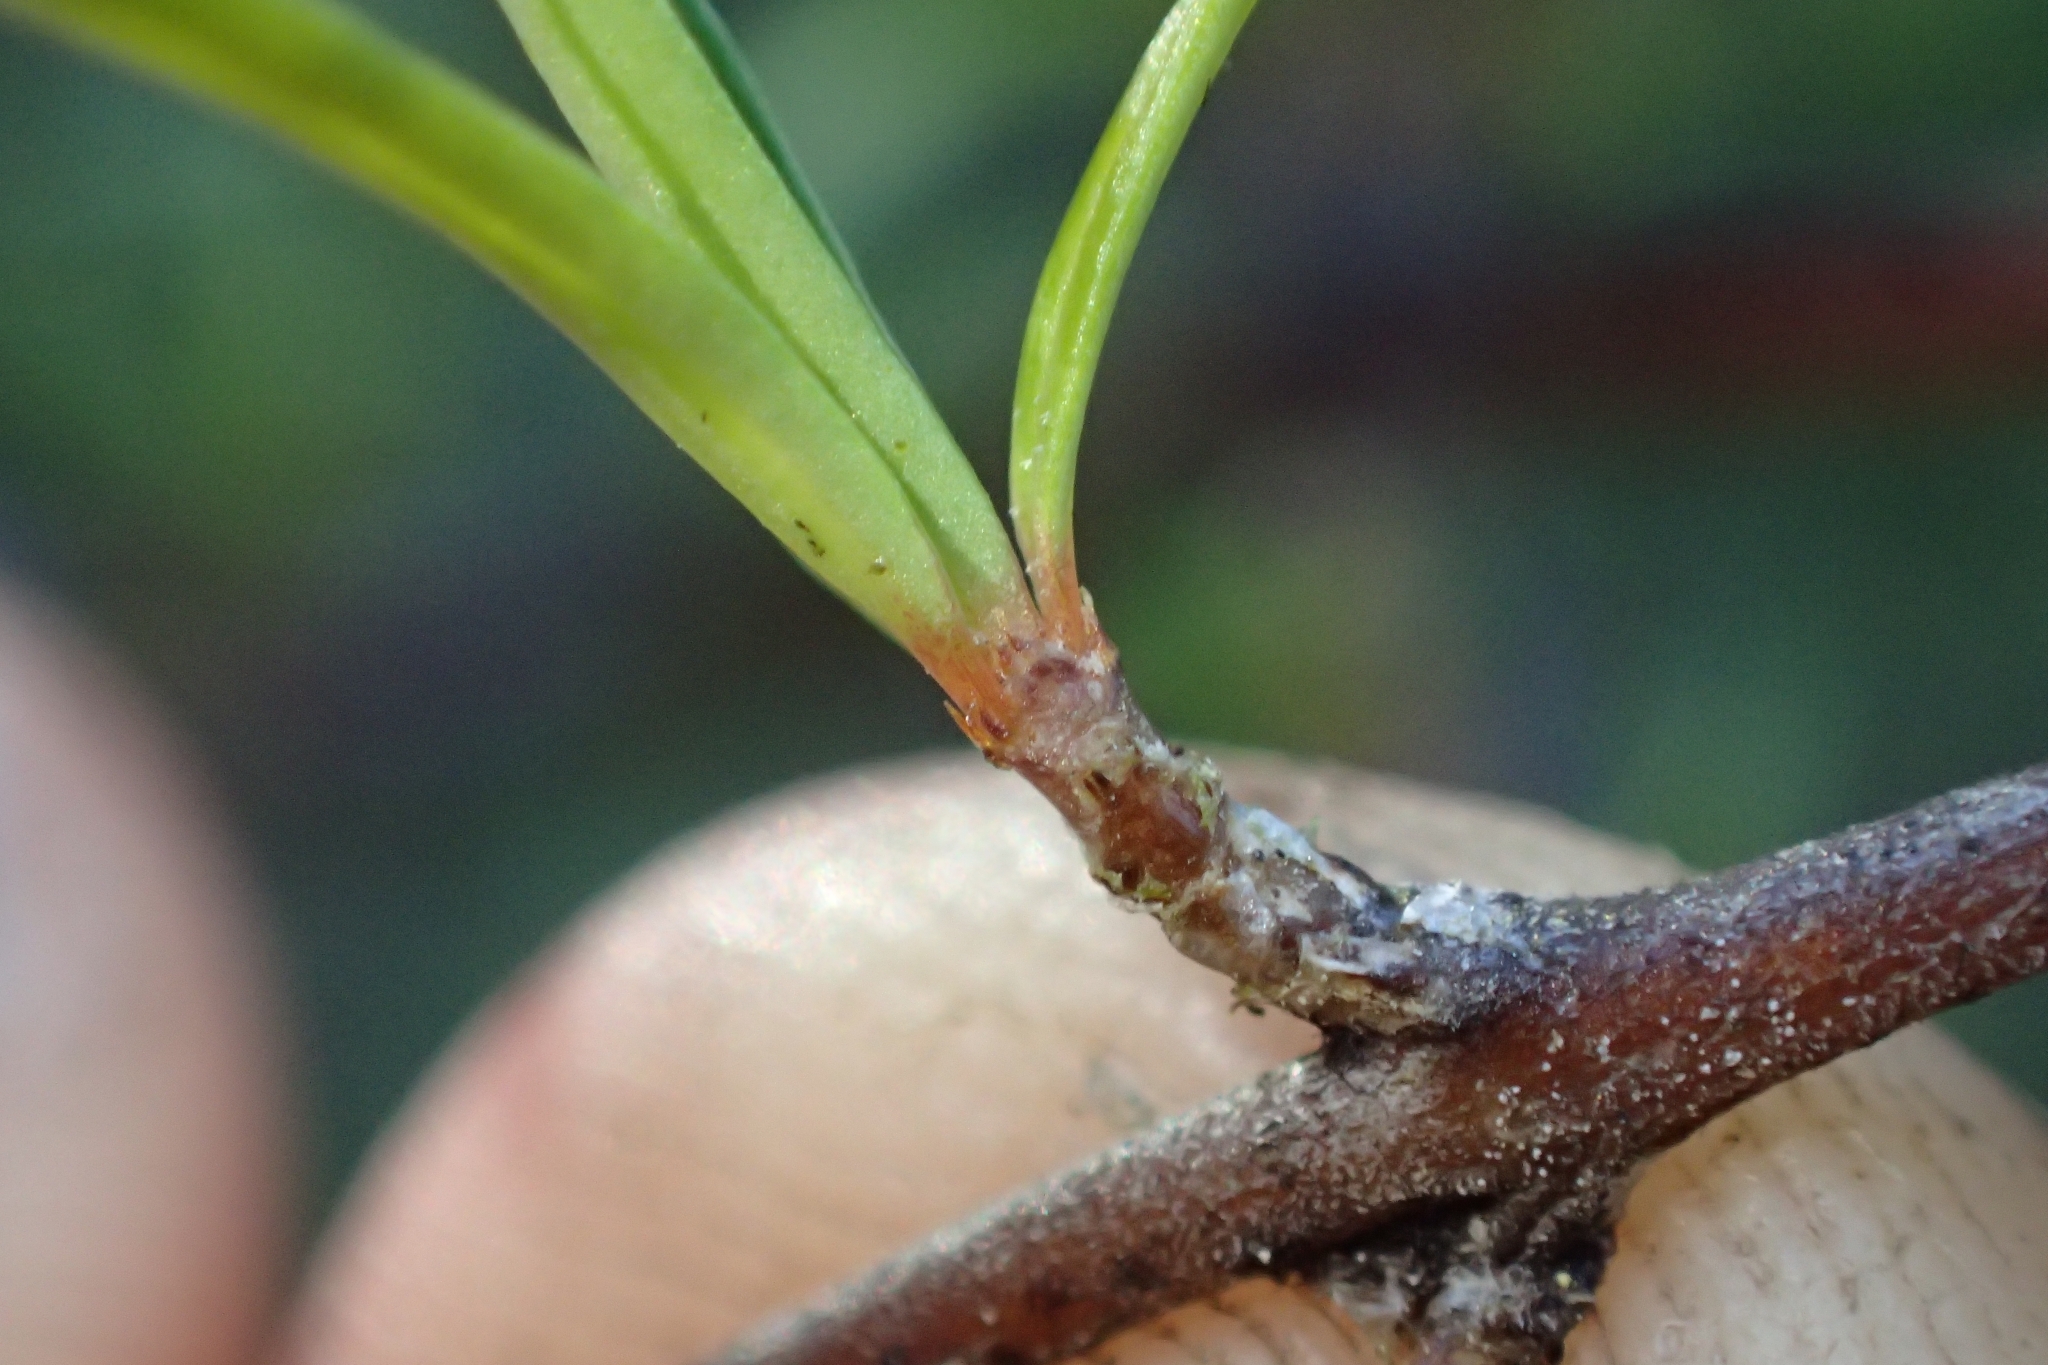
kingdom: Plantae
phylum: Tracheophyta
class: Magnoliopsida
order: Gentianales
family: Rubiaceae
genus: Coprosma
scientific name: Coprosma rugosa
